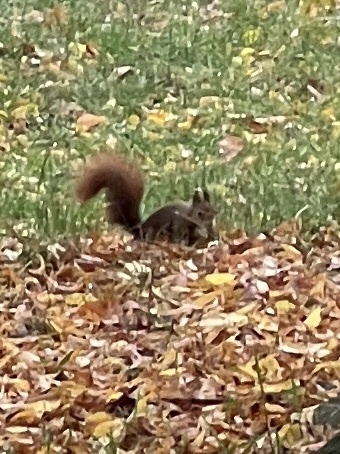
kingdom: Animalia
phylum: Chordata
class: Mammalia
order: Rodentia
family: Sciuridae
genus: Sciurus
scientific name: Sciurus vulgaris
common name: Eurasian red squirrel
